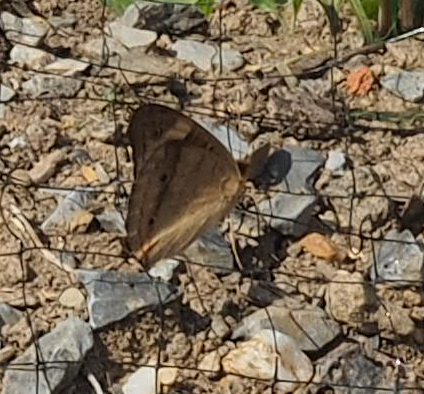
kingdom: Animalia
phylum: Arthropoda
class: Insecta
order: Lepidoptera
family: Nymphalidae
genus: Junonia
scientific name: Junonia coenia
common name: Common buckeye
